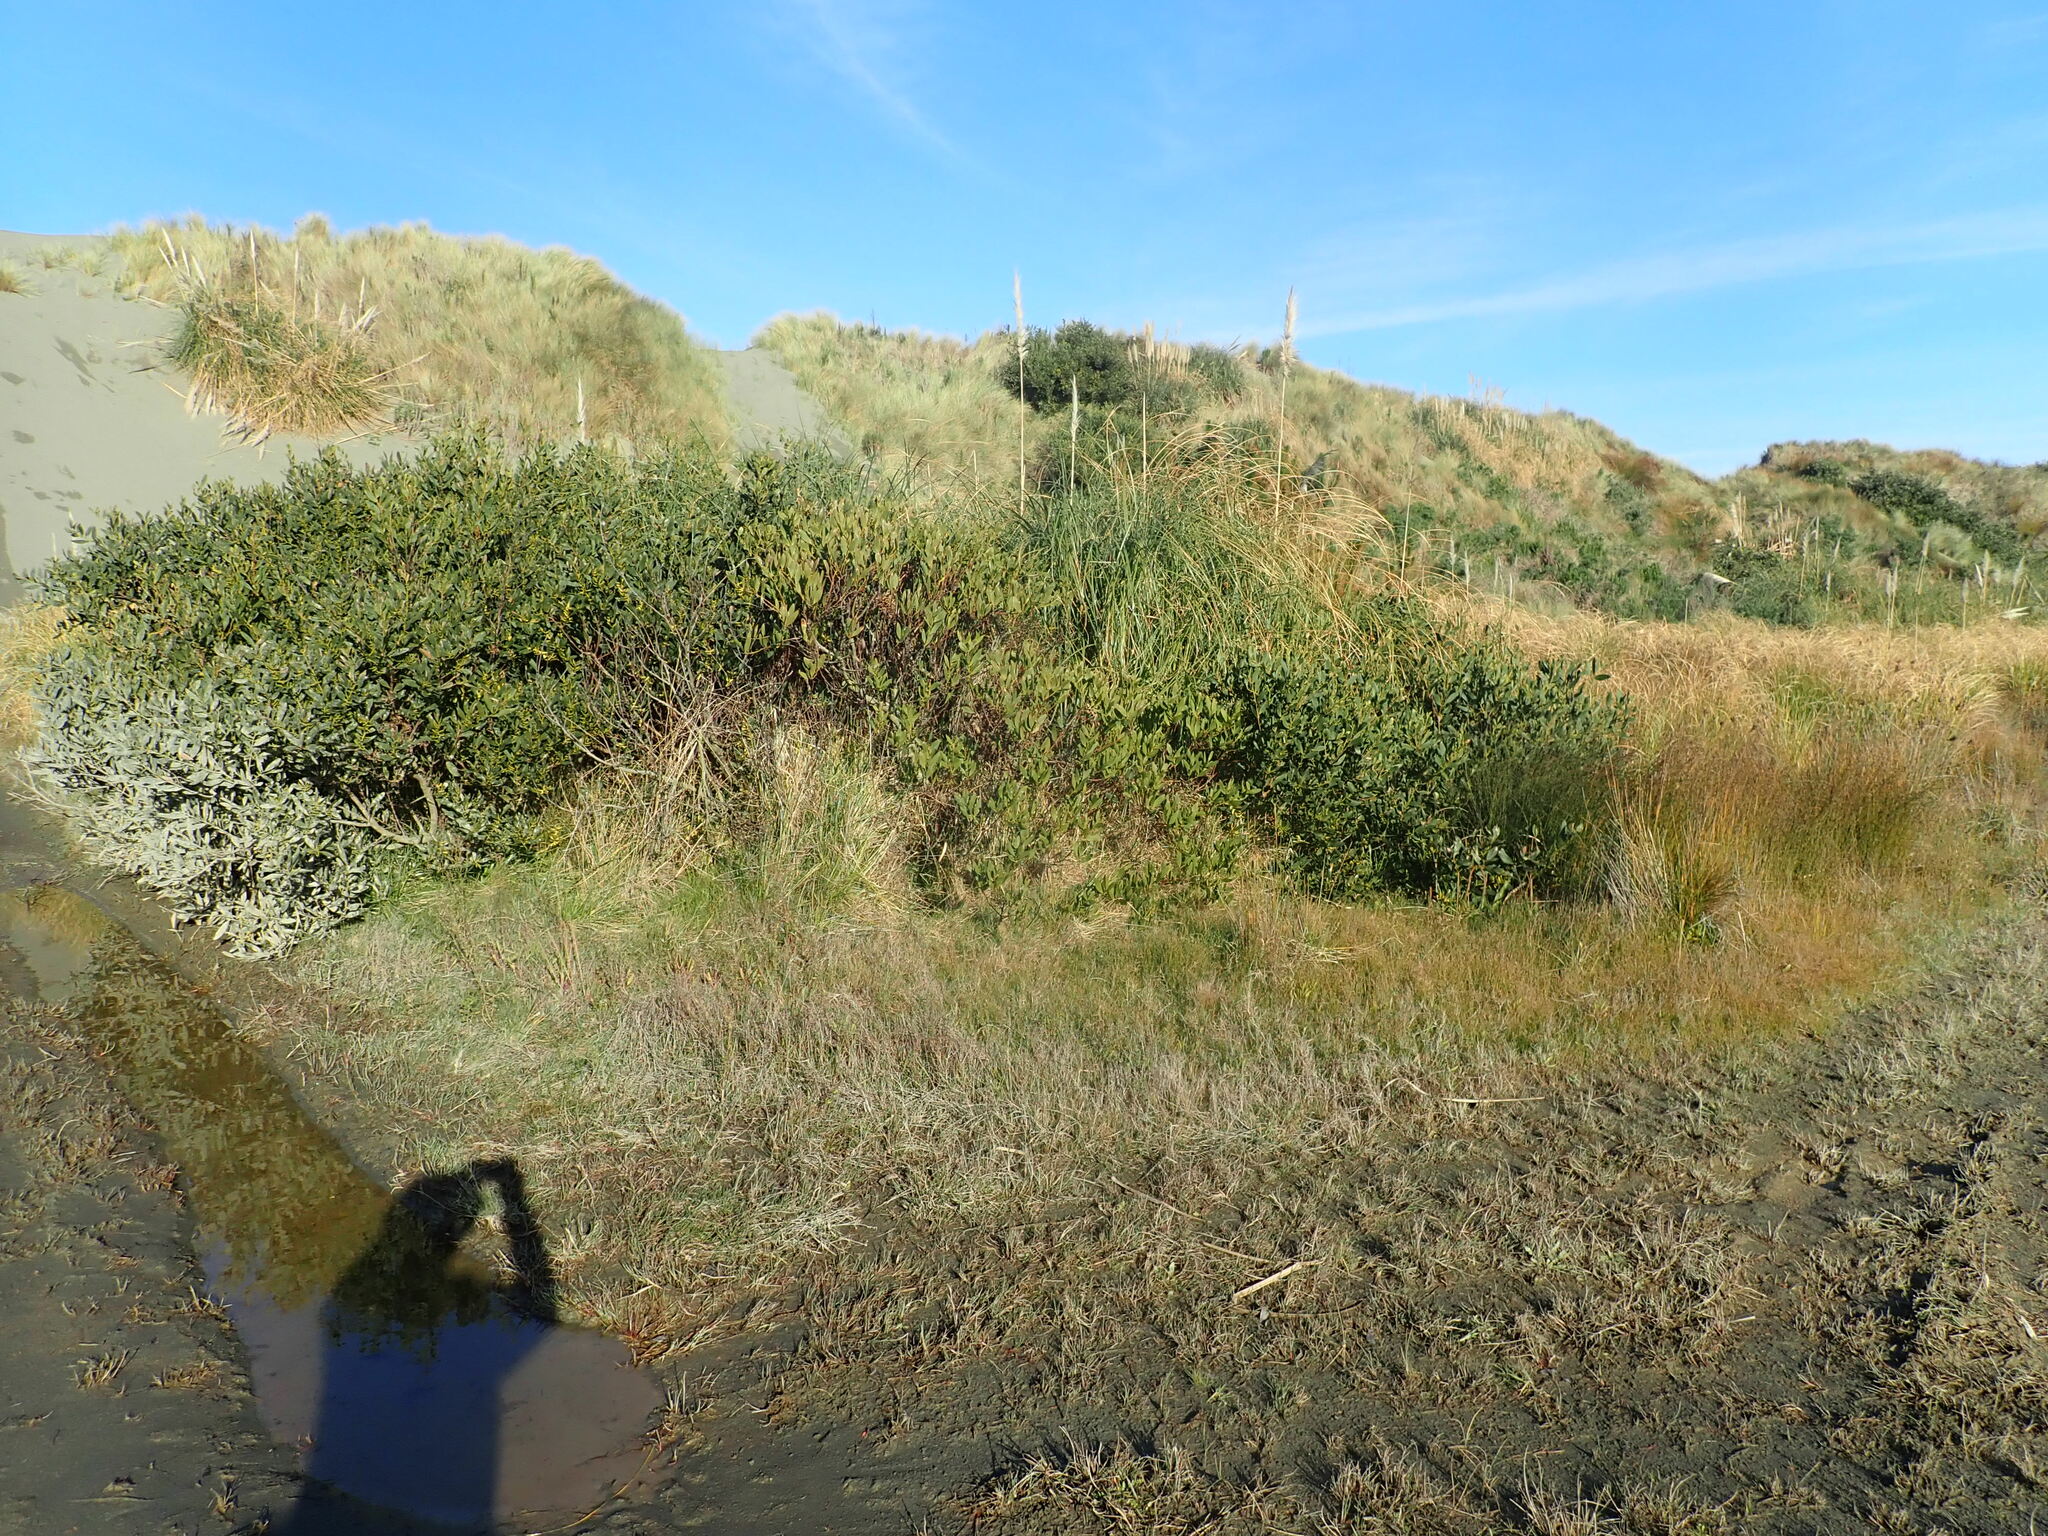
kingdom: Plantae
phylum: Tracheophyta
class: Magnoliopsida
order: Fabales
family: Fabaceae
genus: Acacia
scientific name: Acacia longifolia
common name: Sydney golden wattle
